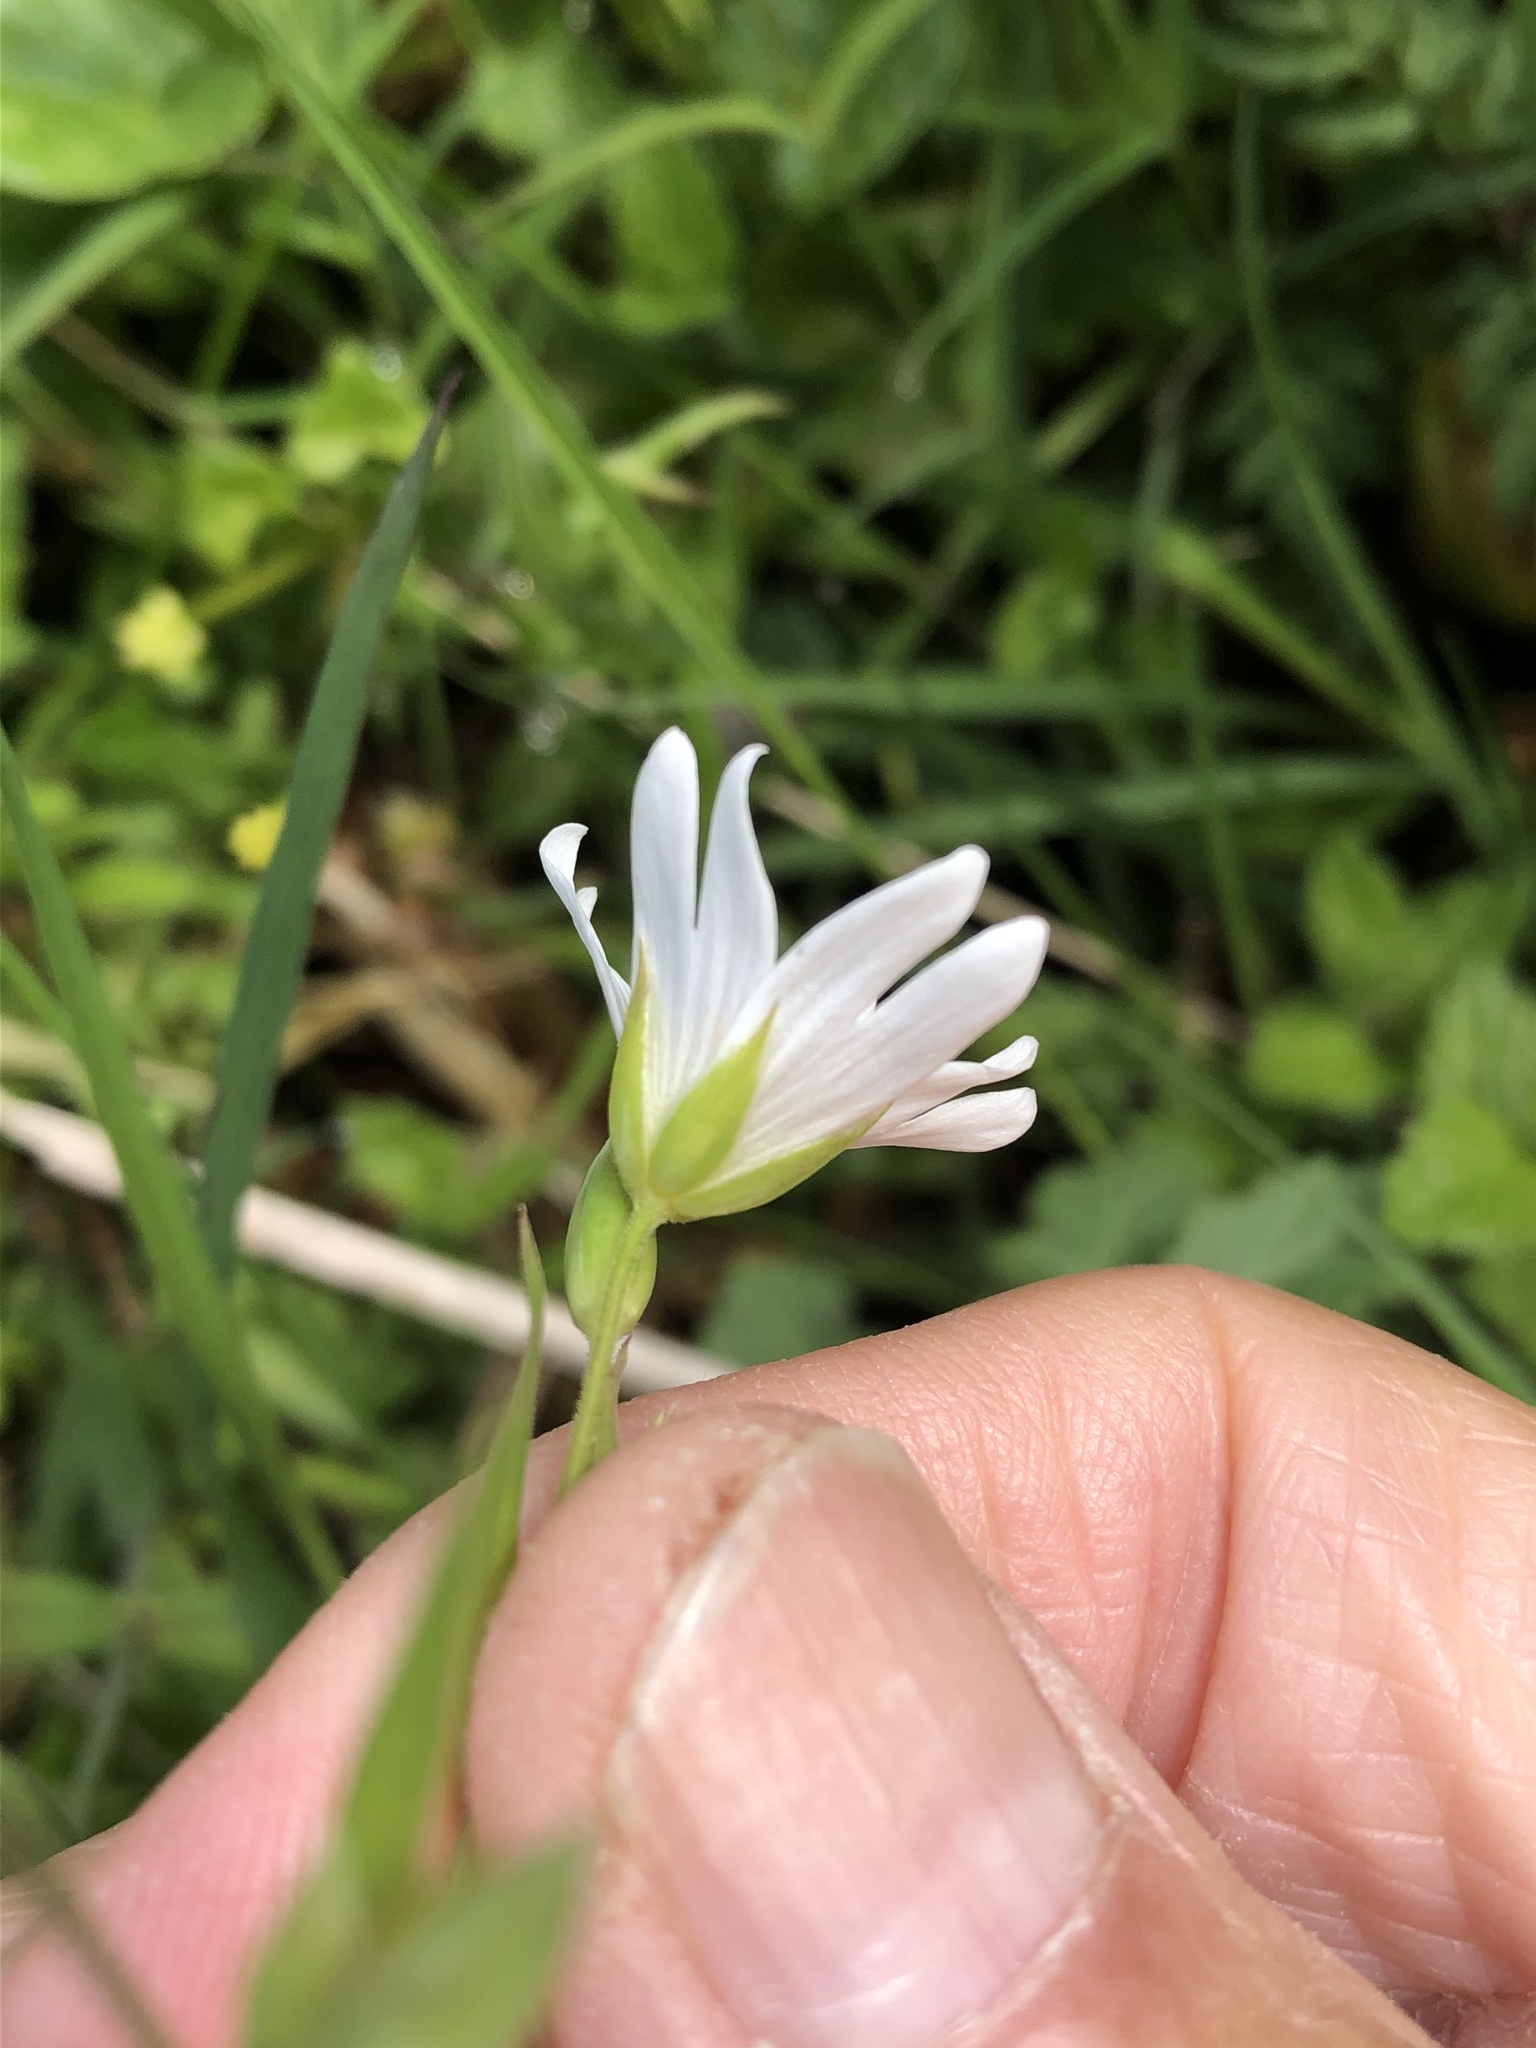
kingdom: Plantae
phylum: Tracheophyta
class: Magnoliopsida
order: Caryophyllales
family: Caryophyllaceae
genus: Rabelera
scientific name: Rabelera holostea
